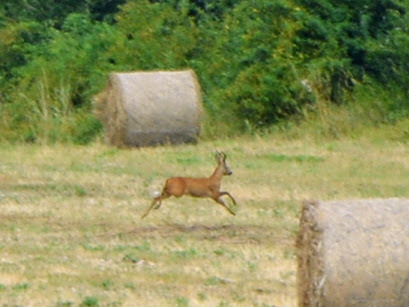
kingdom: Animalia
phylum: Chordata
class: Mammalia
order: Artiodactyla
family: Cervidae
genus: Capreolus
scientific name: Capreolus capreolus
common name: Western roe deer
